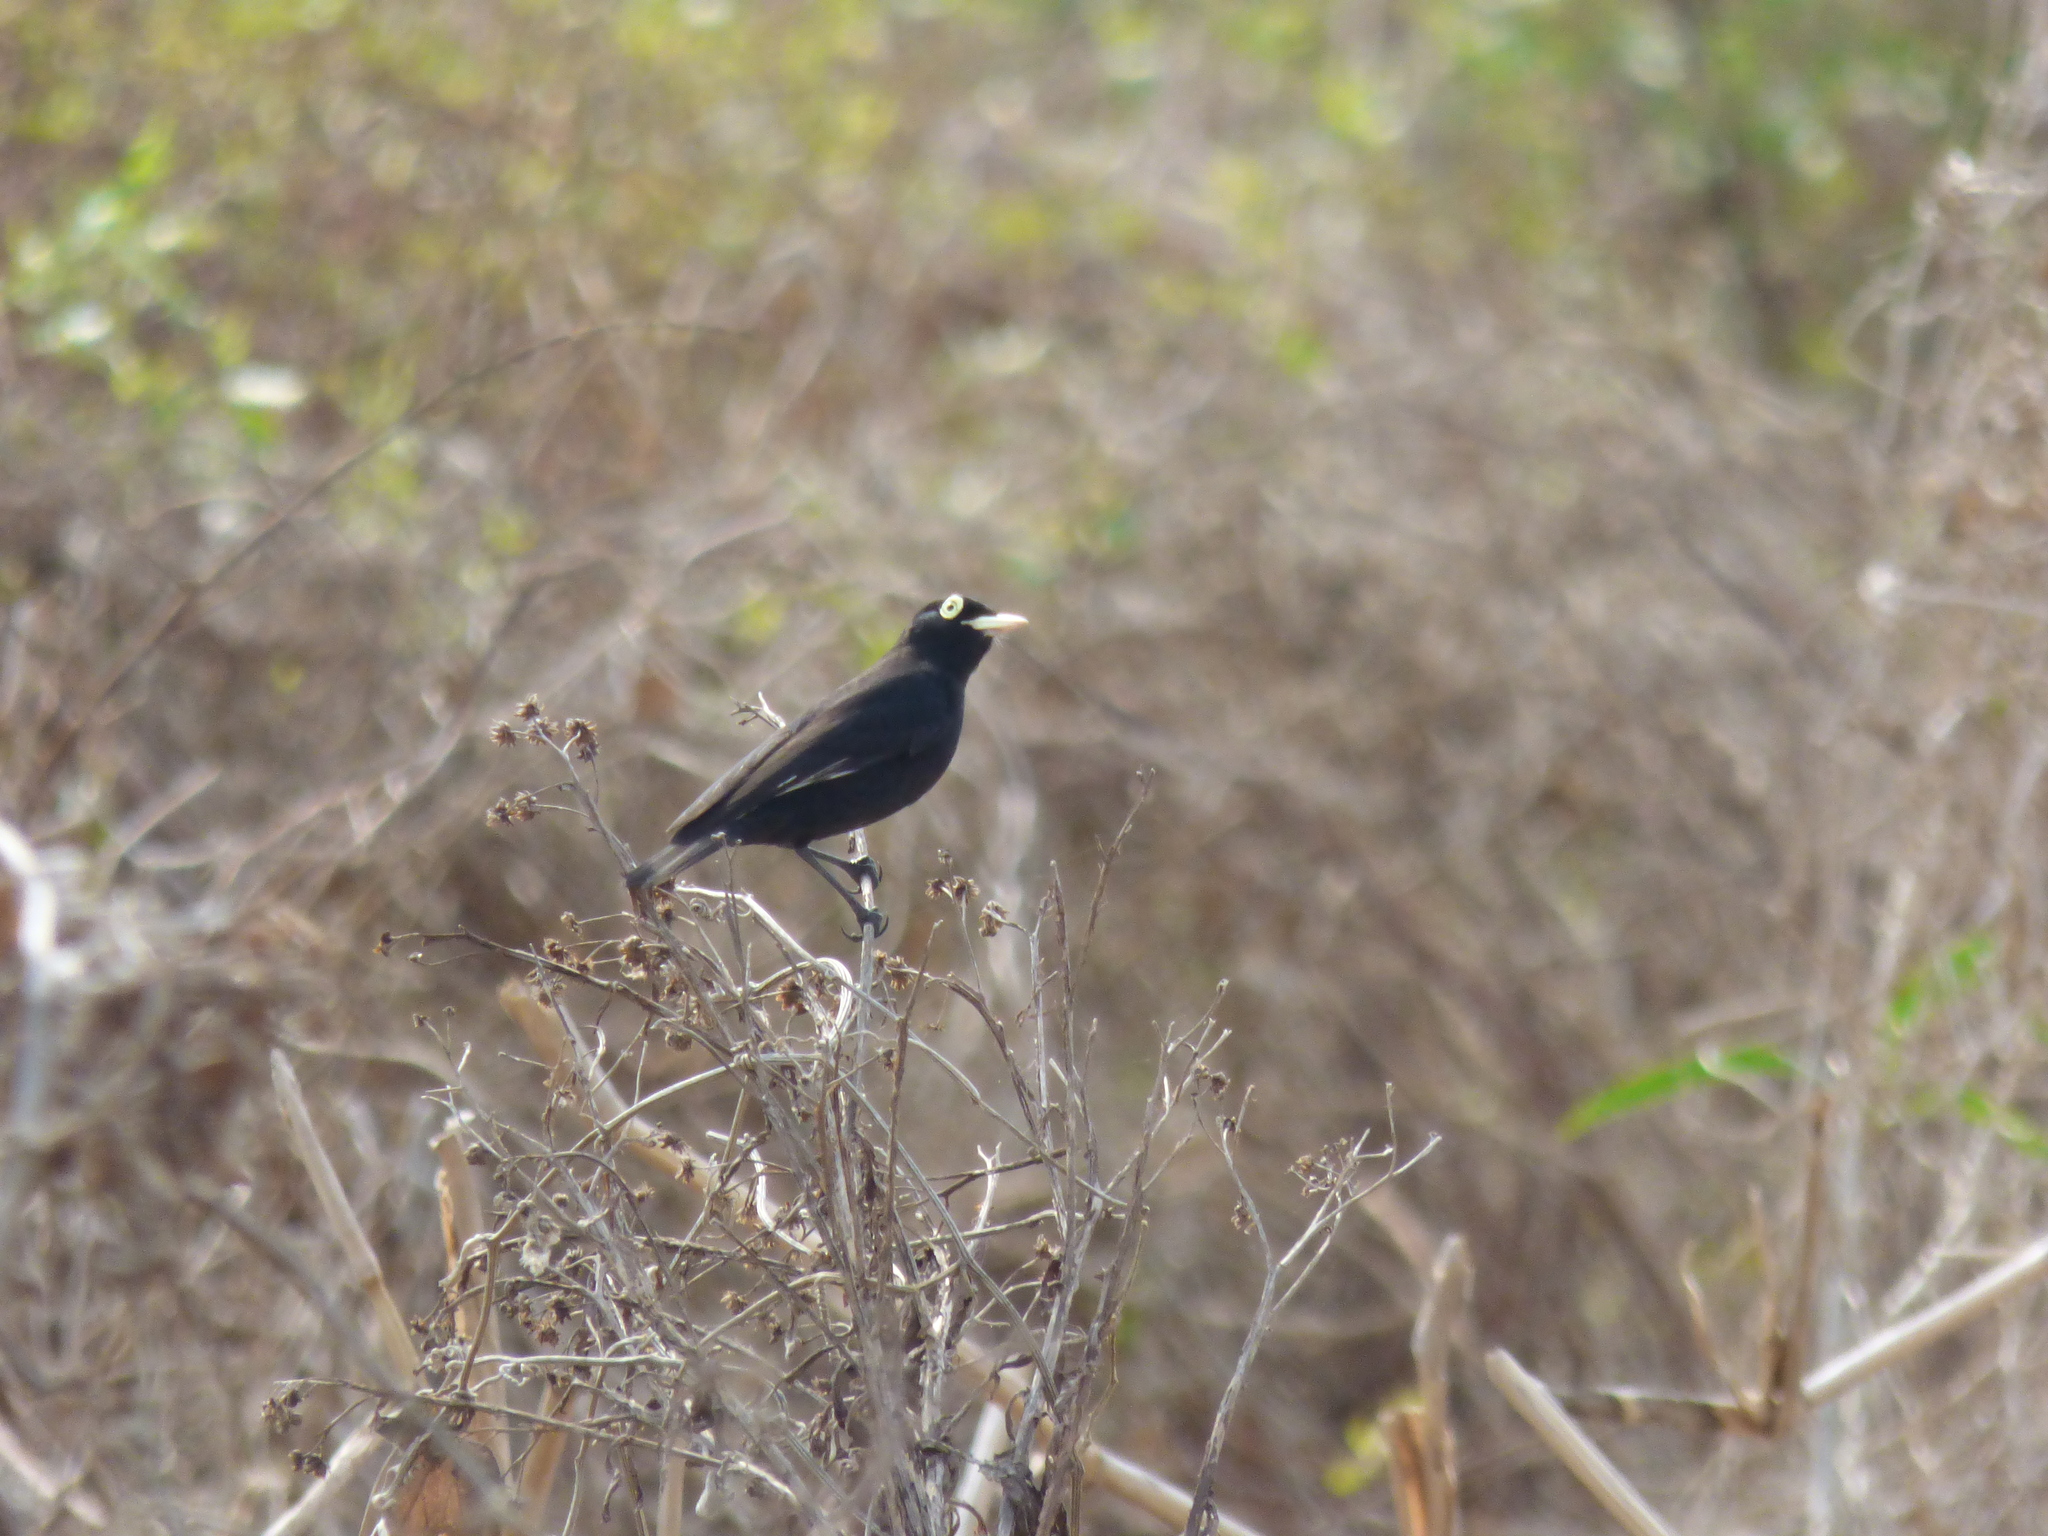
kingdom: Animalia
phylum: Chordata
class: Aves
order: Passeriformes
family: Tyrannidae
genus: Hymenops
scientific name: Hymenops perspicillatus
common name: Spectacled tyrant
